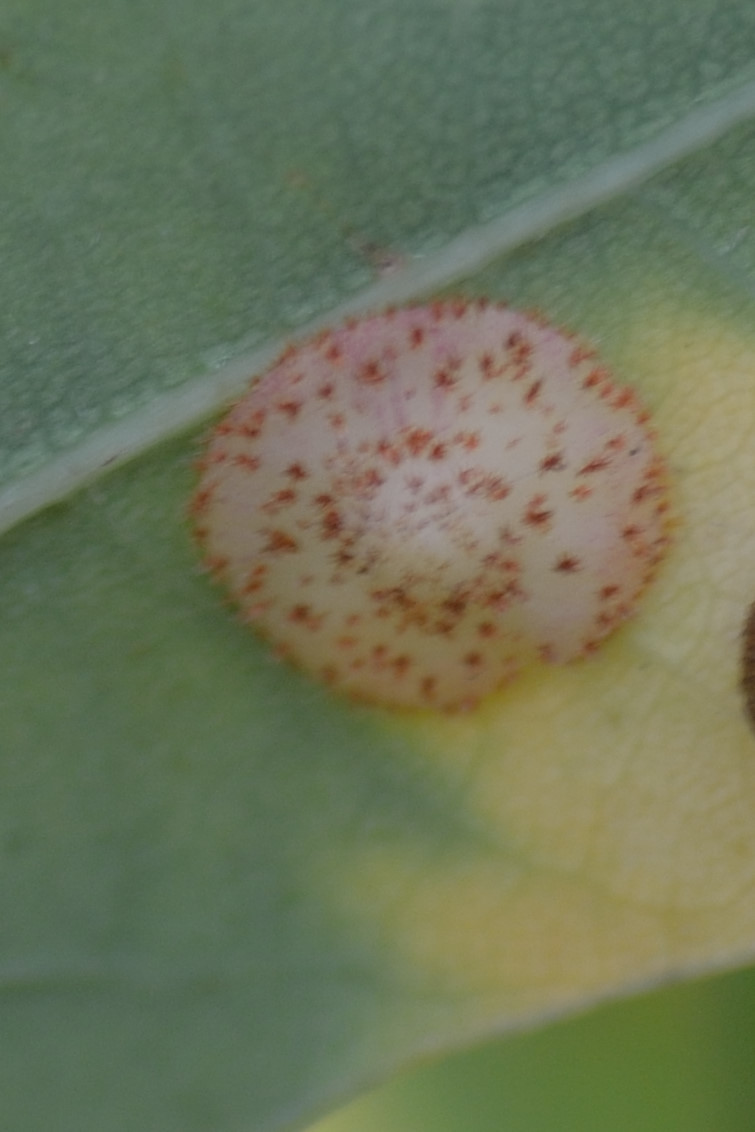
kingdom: Animalia
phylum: Arthropoda
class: Insecta
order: Hymenoptera
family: Cynipidae
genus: Neuroterus
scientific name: Neuroterus quercusbaccarum
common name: Common spangle gall
